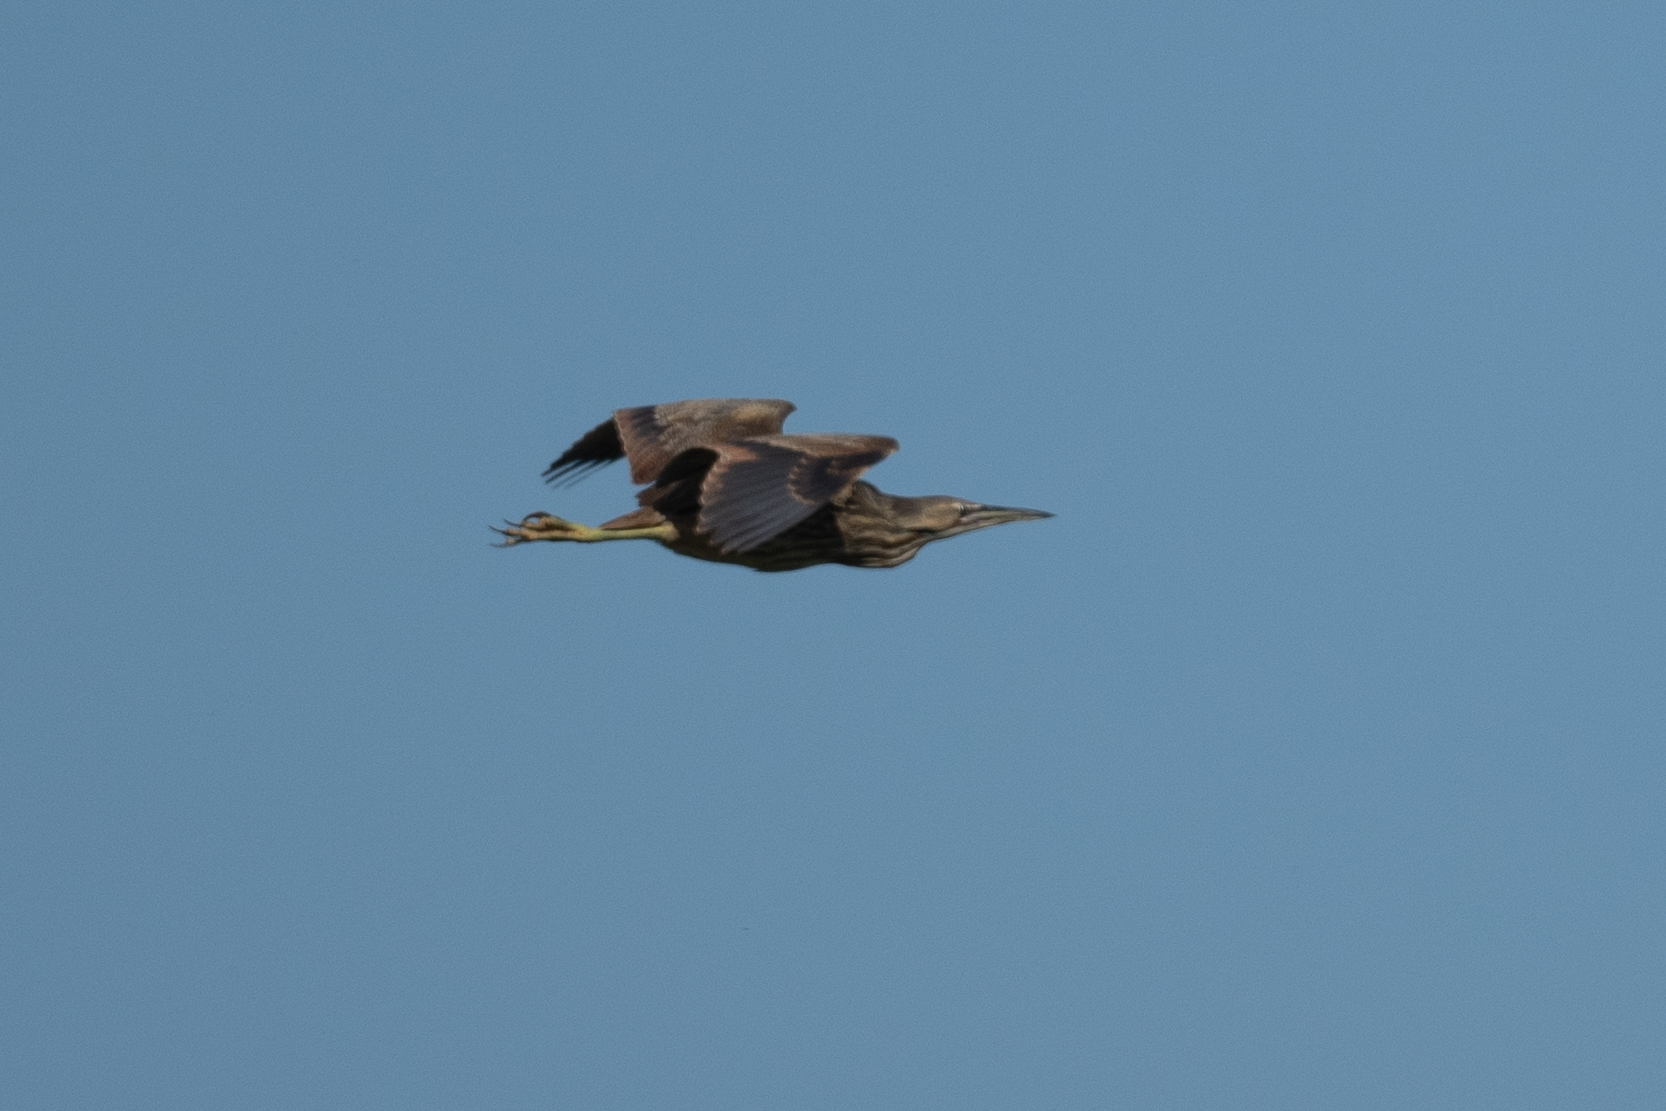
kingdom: Animalia
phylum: Chordata
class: Aves
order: Pelecaniformes
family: Ardeidae
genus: Botaurus
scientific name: Botaurus lentiginosus
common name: American bittern
